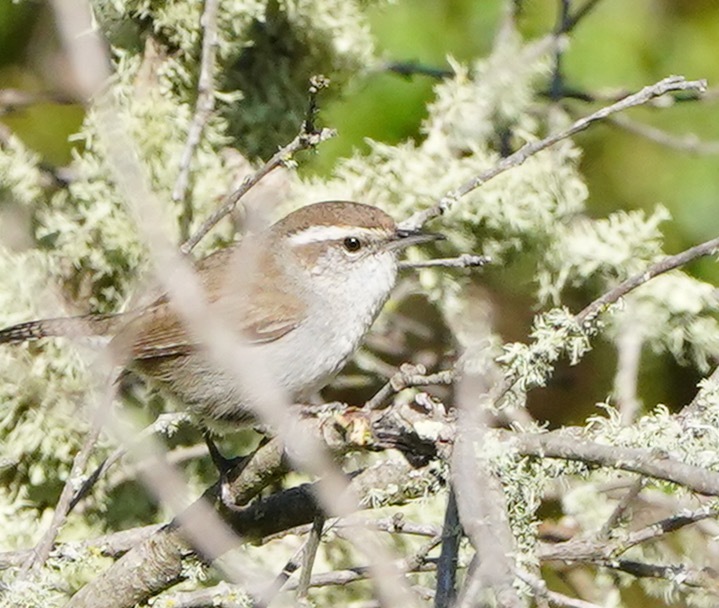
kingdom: Animalia
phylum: Chordata
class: Aves
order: Passeriformes
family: Troglodytidae
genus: Thryomanes
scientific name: Thryomanes bewickii
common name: Bewick's wren
